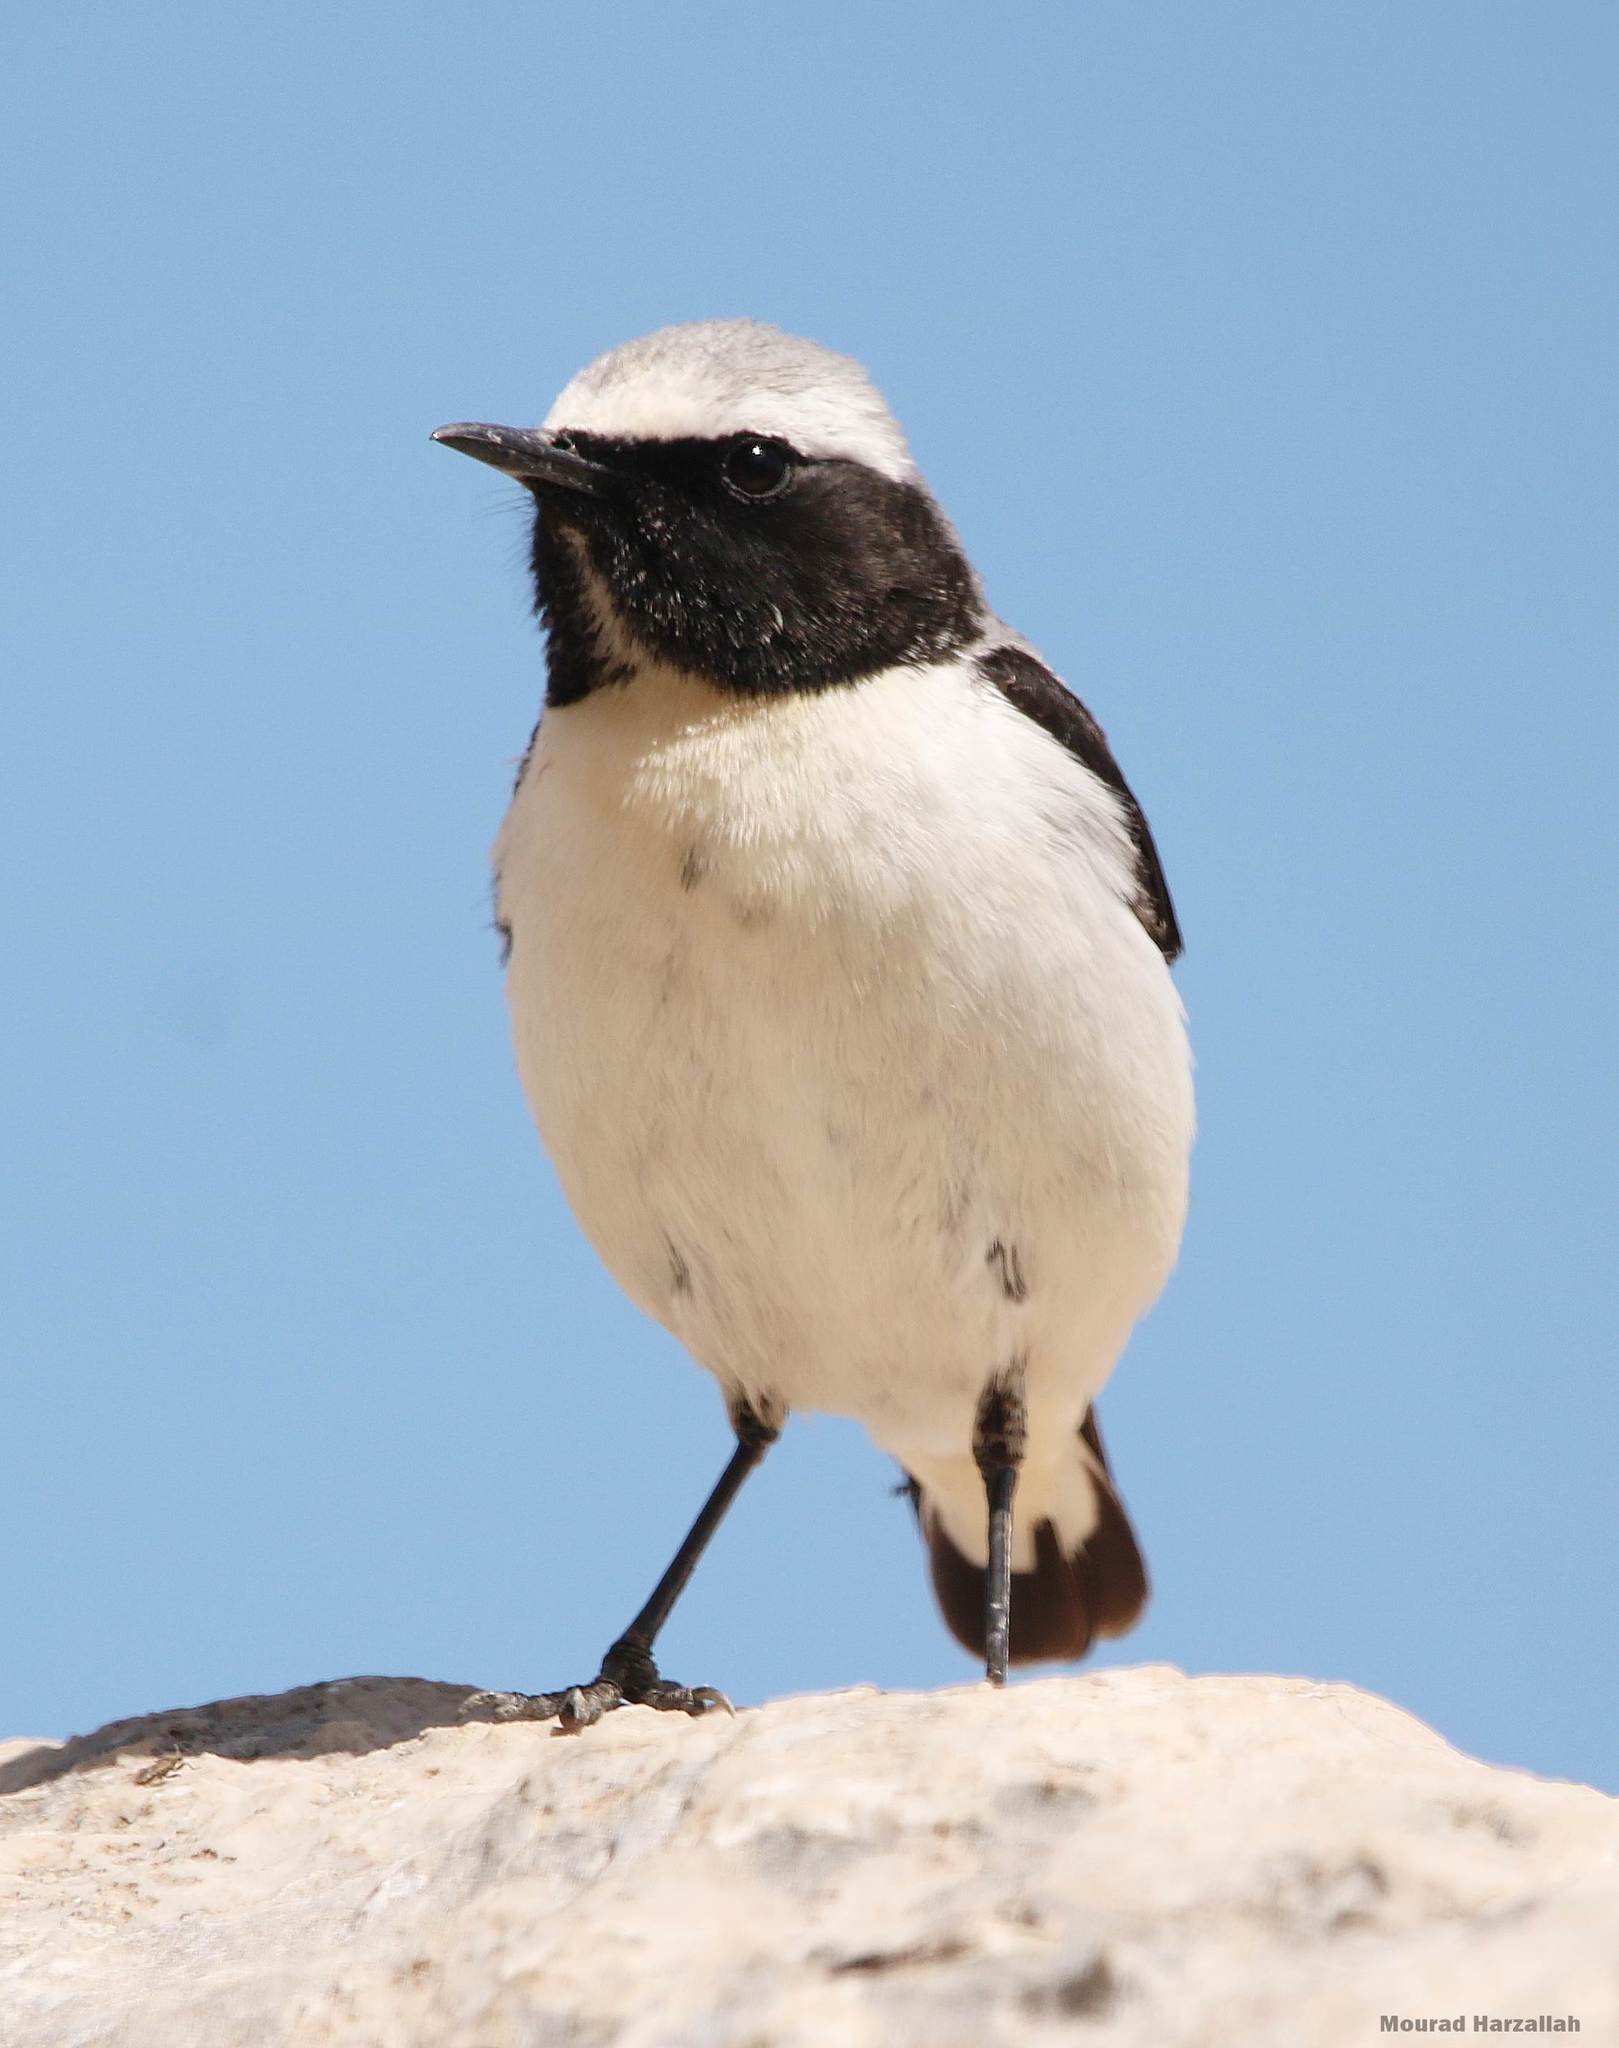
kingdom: Animalia
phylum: Chordata
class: Aves
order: Passeriformes
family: Muscicapidae
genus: Oenanthe
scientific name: Oenanthe oenanthe
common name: Northern wheatear
